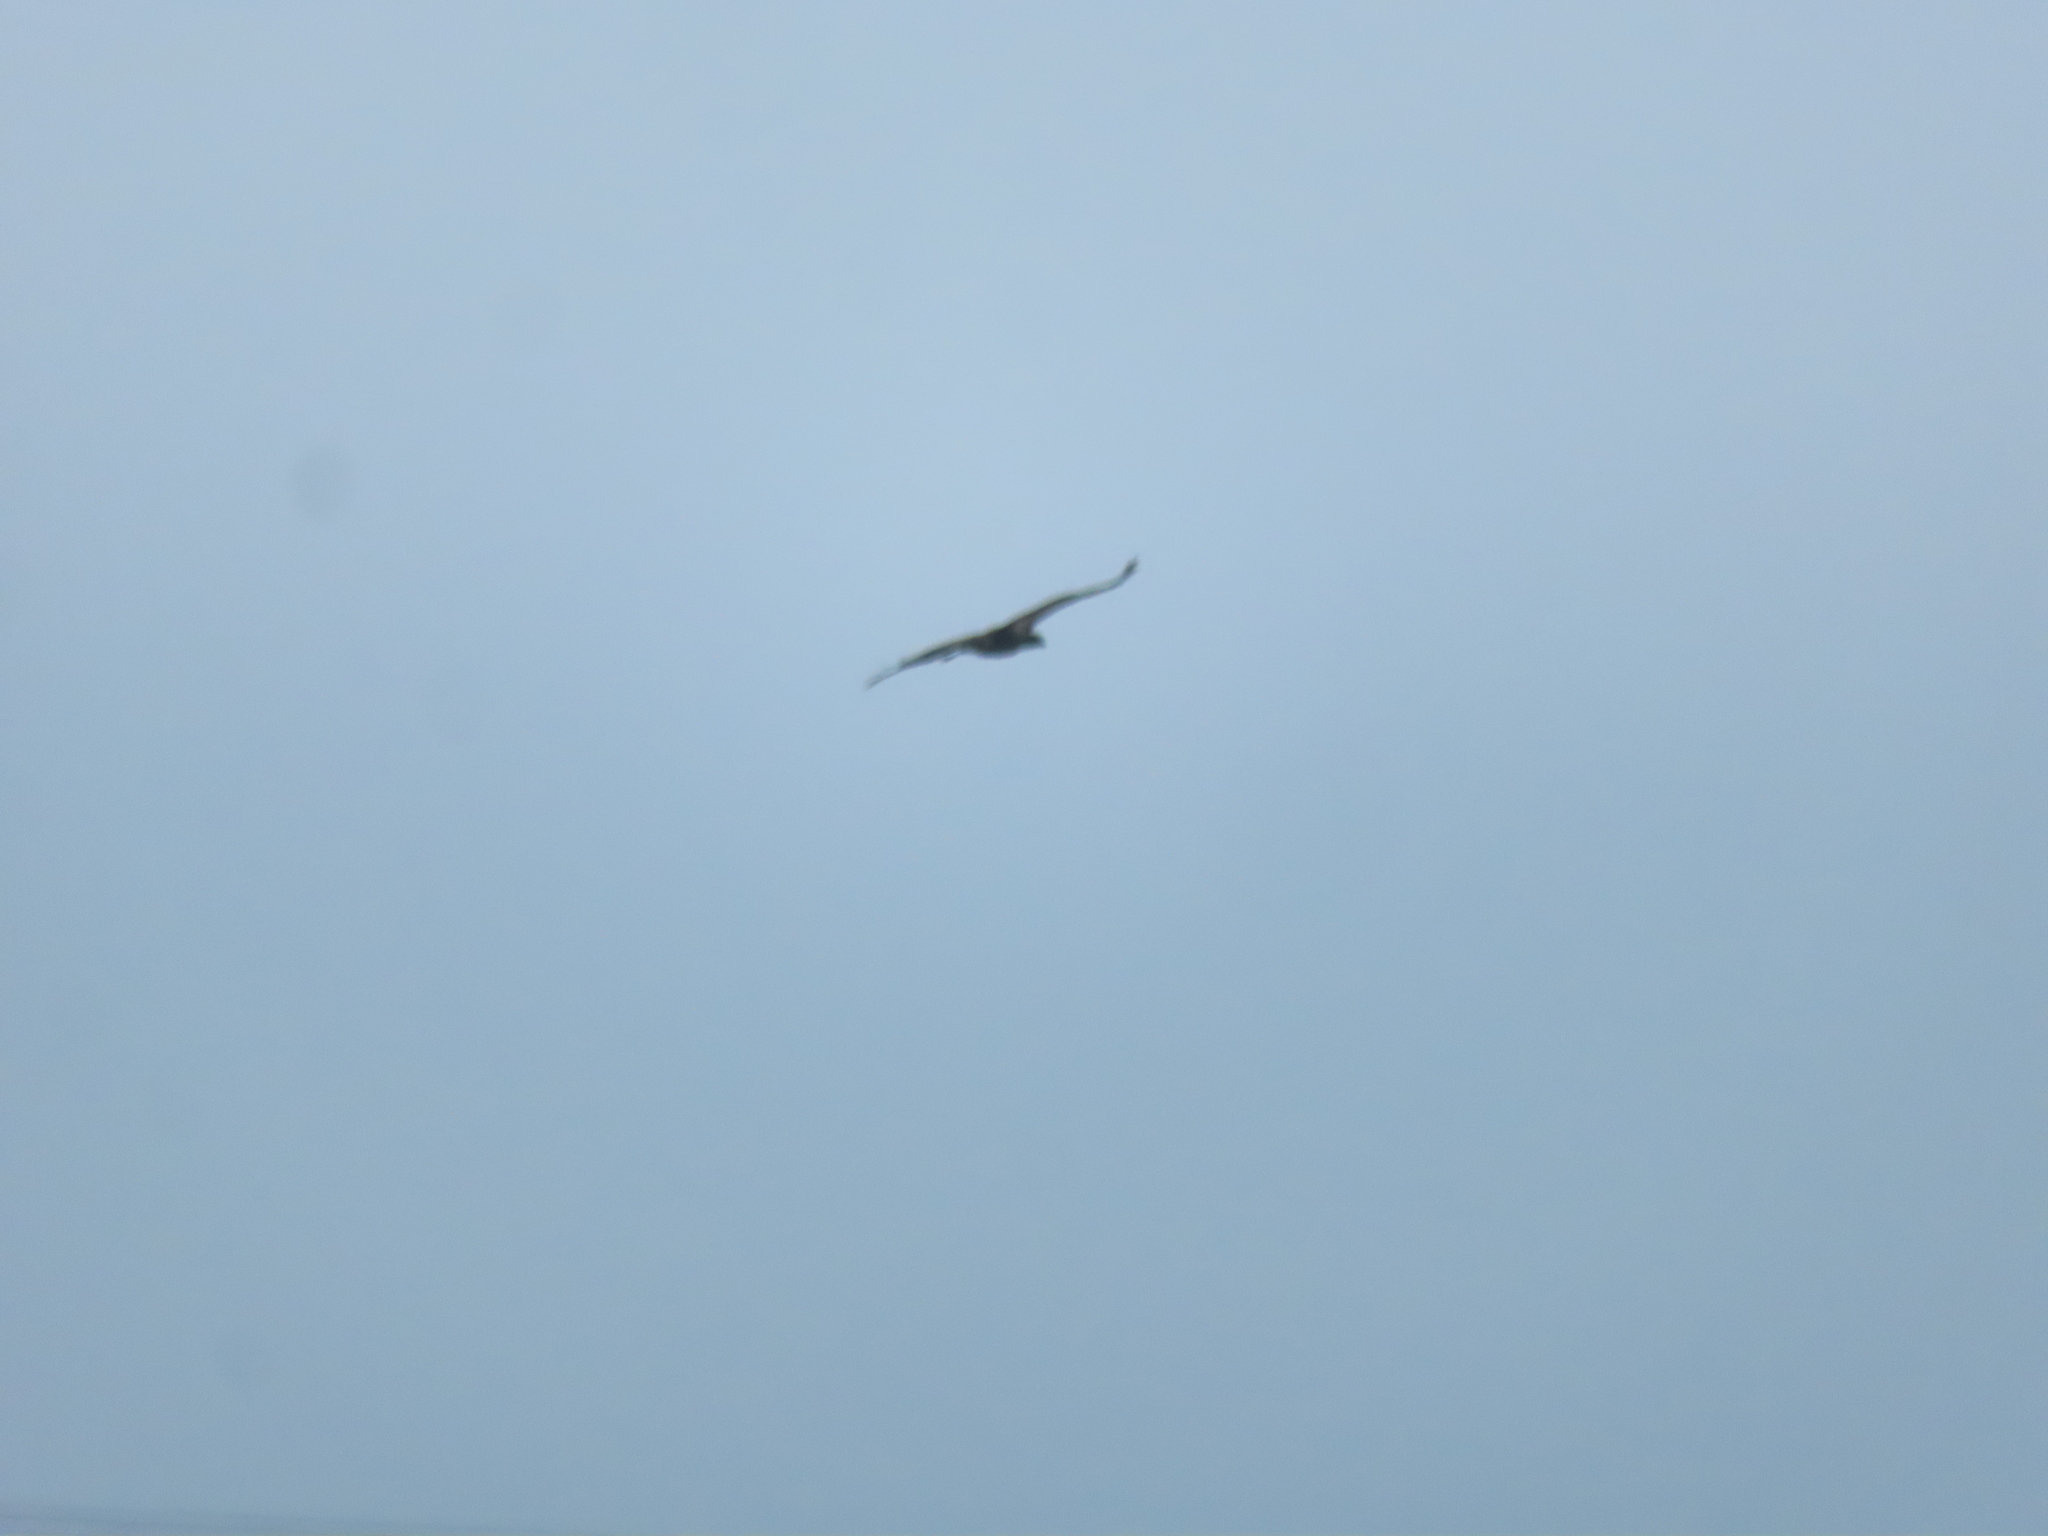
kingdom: Animalia
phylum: Chordata
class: Aves
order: Accipitriformes
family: Accipitridae
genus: Haliaeetus
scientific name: Haliaeetus leucocephalus
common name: Bald eagle
